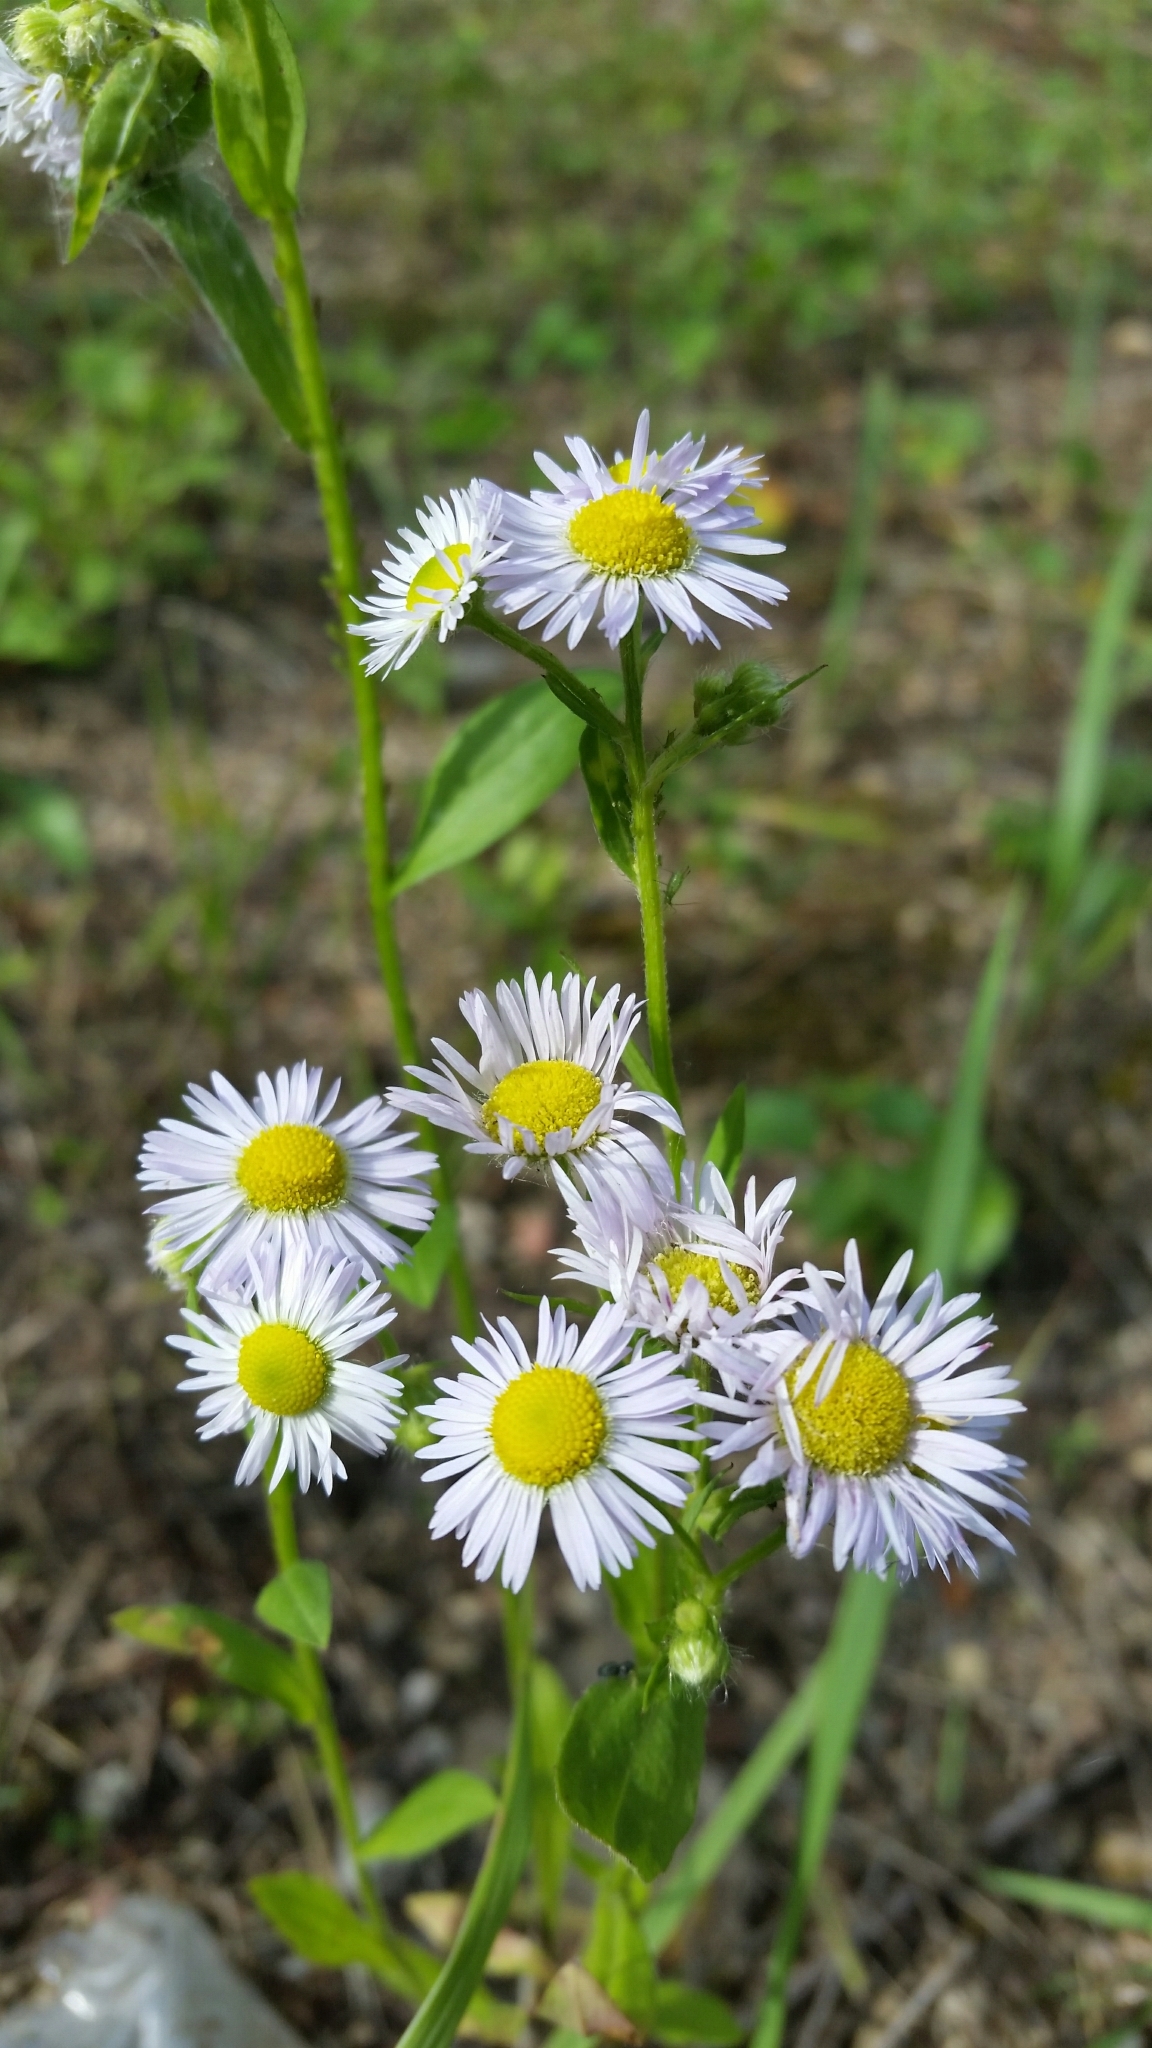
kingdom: Plantae
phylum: Tracheophyta
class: Magnoliopsida
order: Asterales
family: Asteraceae
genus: Erigeron
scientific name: Erigeron annuus
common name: Tall fleabane
